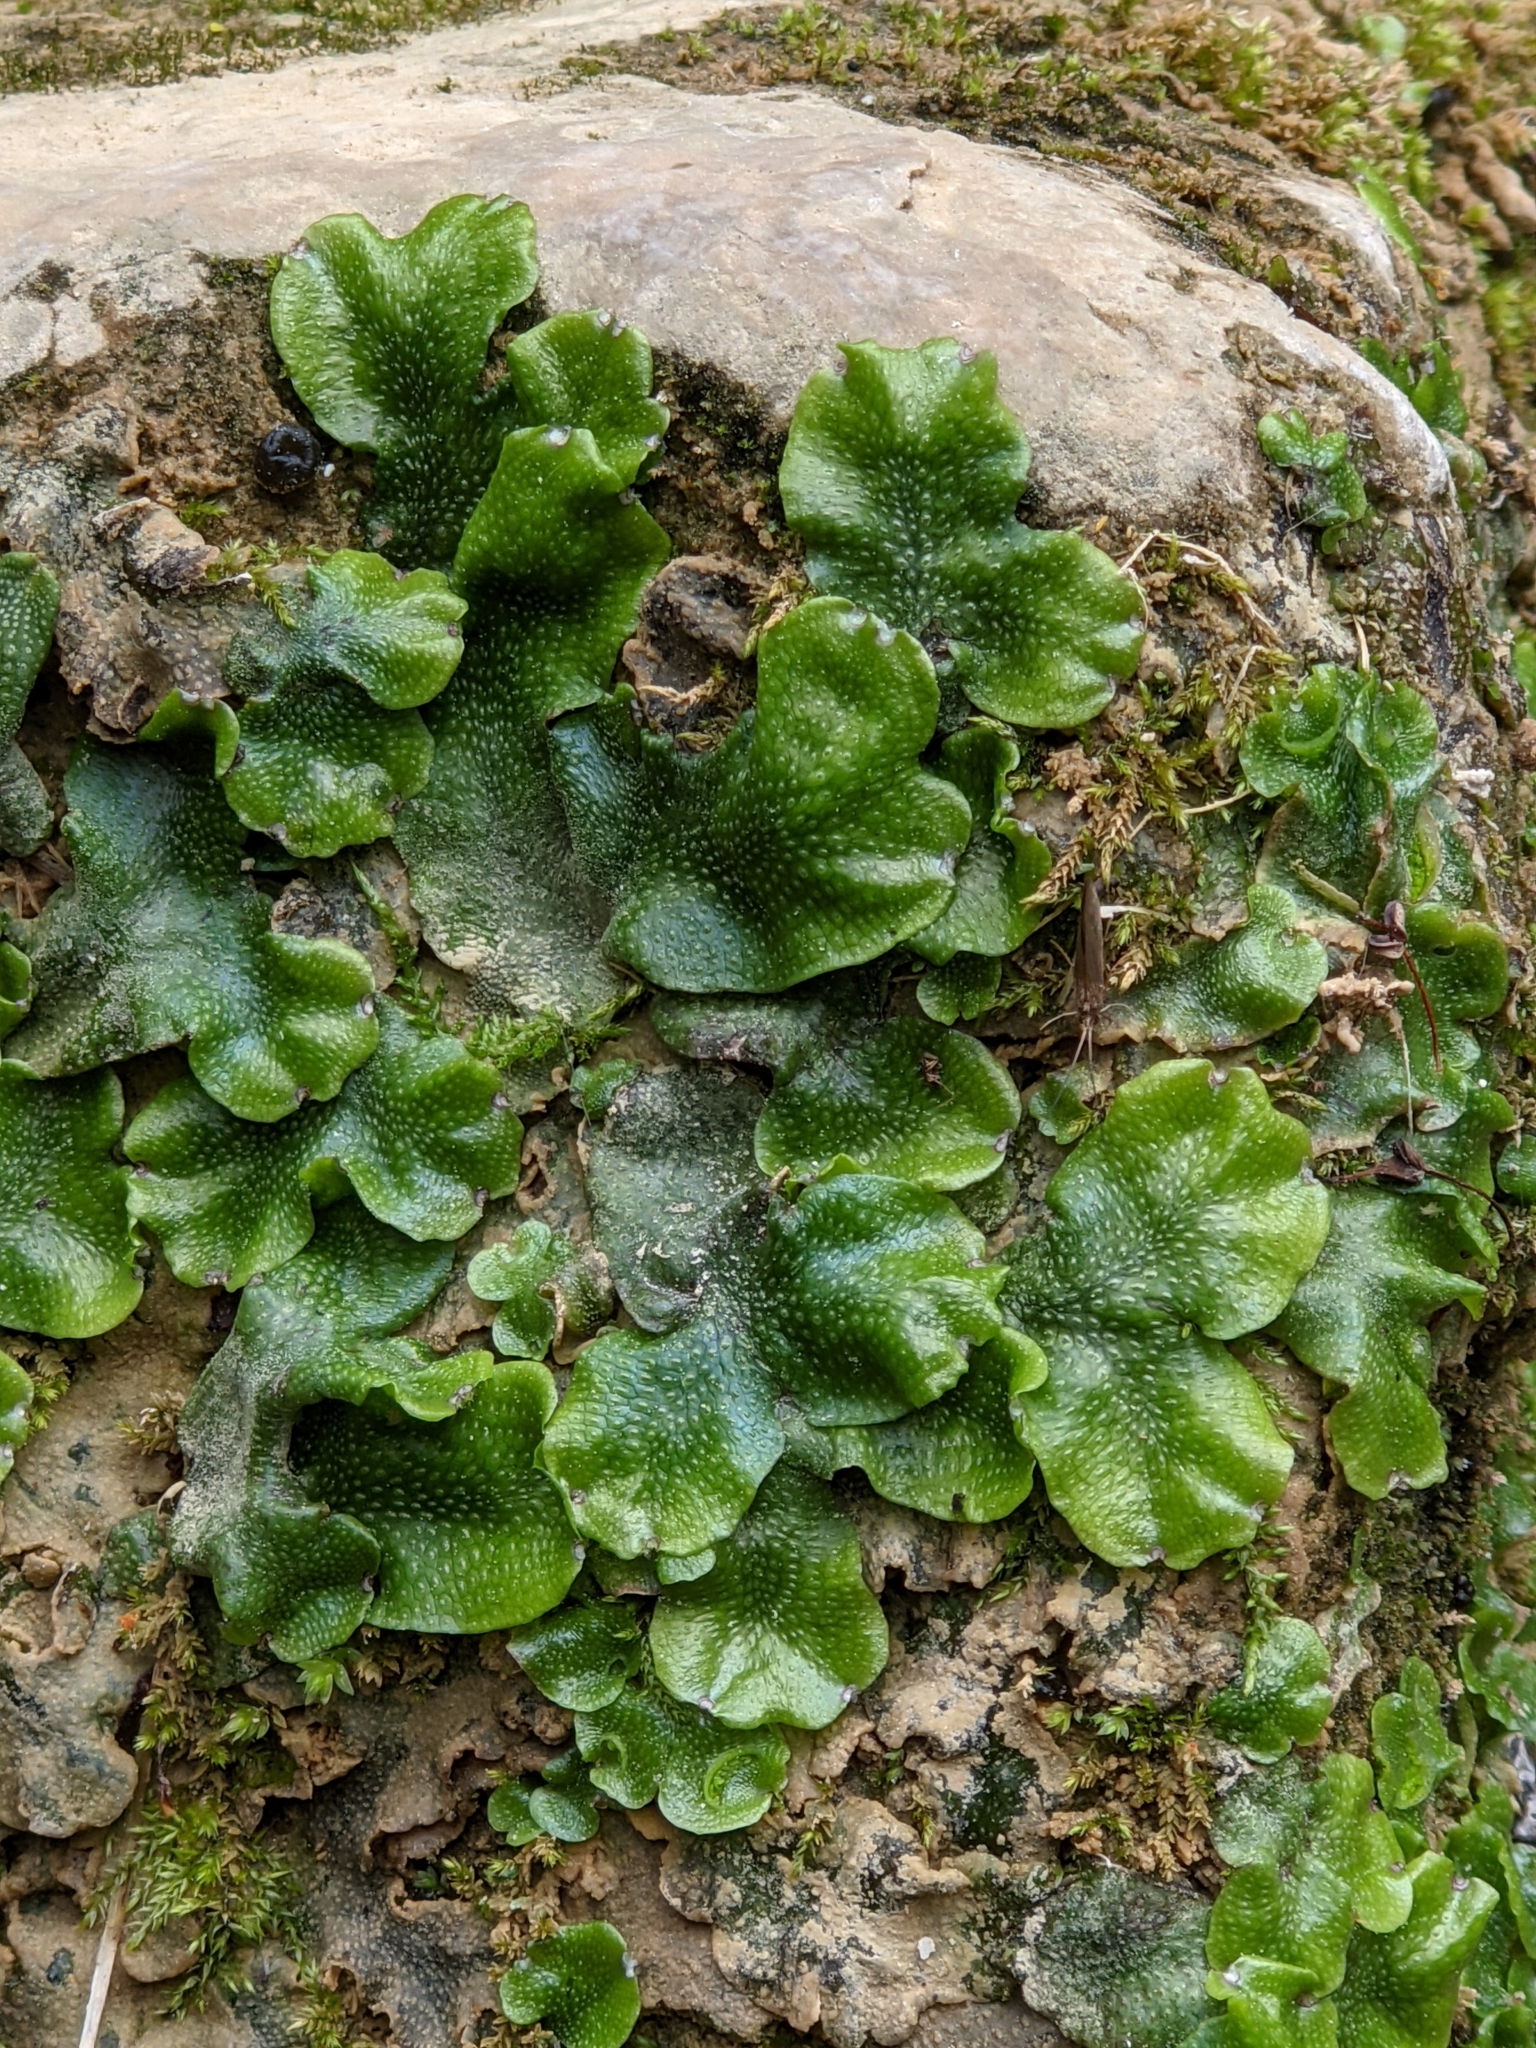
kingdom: Plantae
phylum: Marchantiophyta
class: Marchantiopsida
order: Marchantiales
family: Conocephalaceae
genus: Conocephalum
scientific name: Conocephalum conicum
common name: Great scented liverwort
